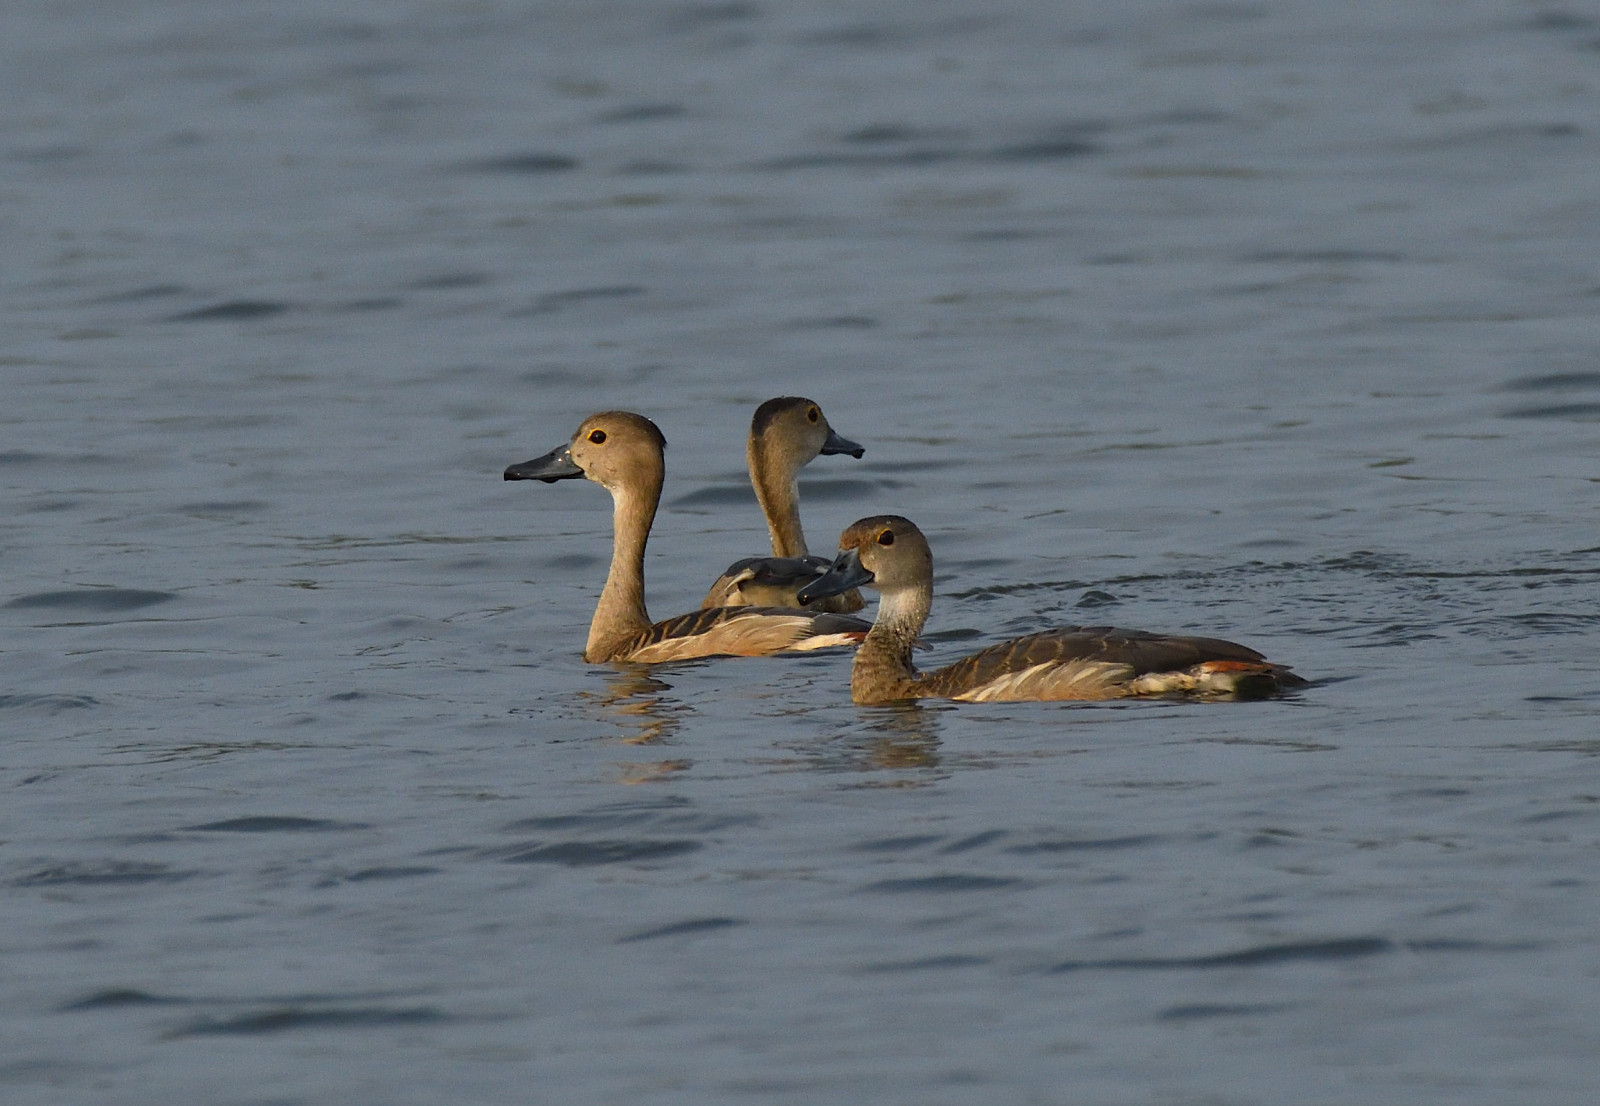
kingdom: Animalia
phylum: Chordata
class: Aves
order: Anseriformes
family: Anatidae
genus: Dendrocygna
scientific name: Dendrocygna javanica
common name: Lesser whistling-duck
